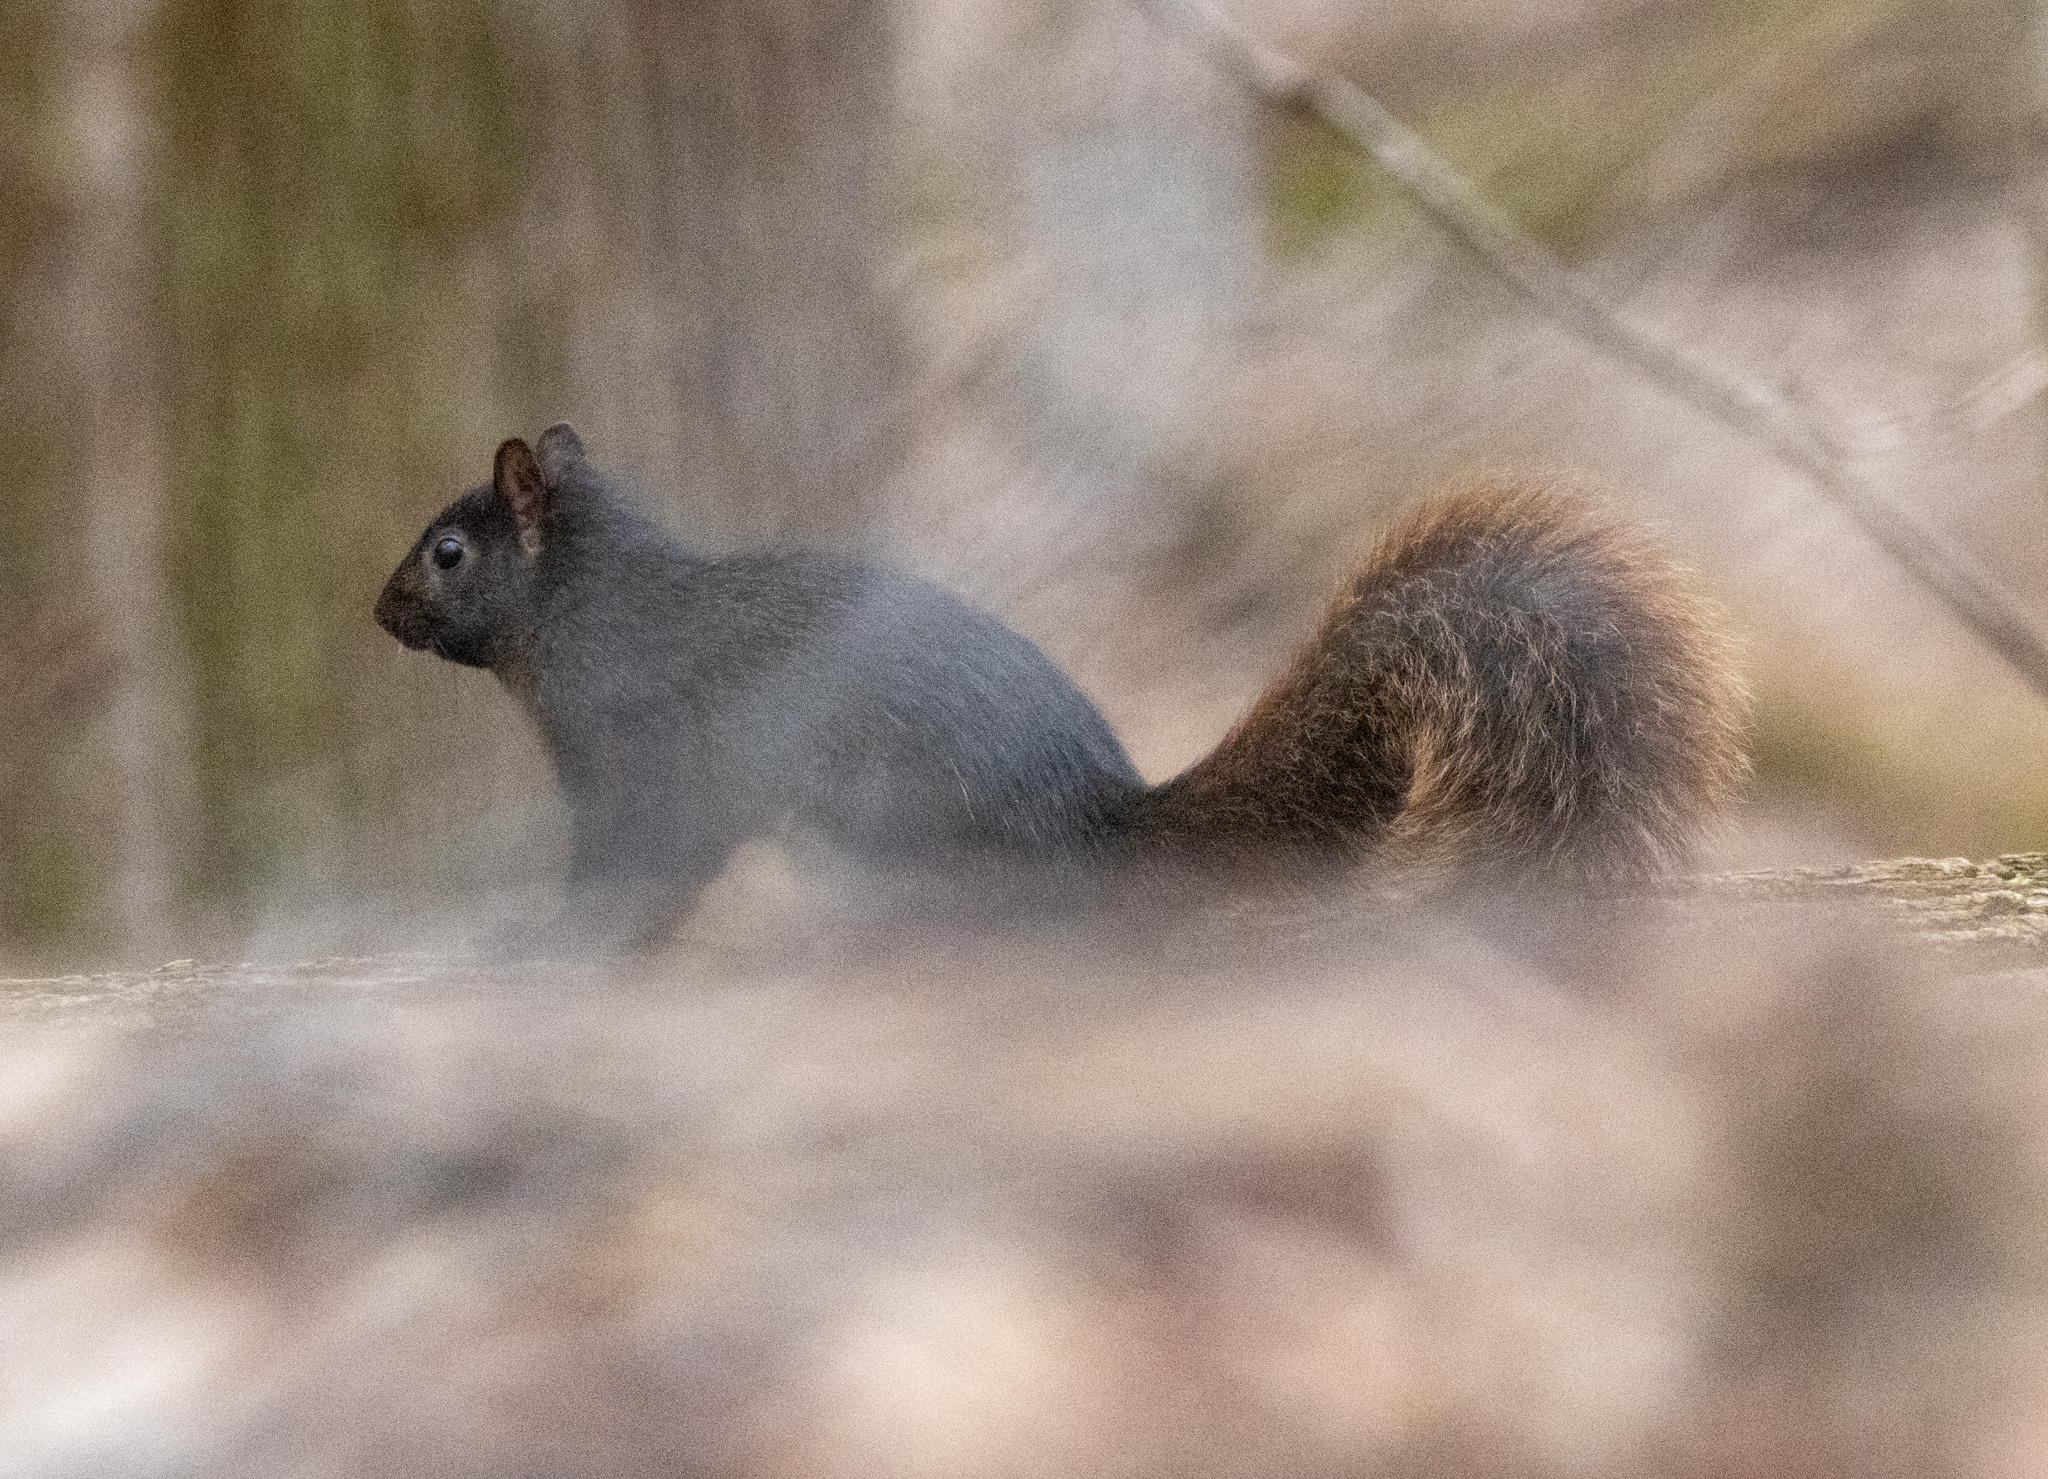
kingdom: Animalia
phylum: Chordata
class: Mammalia
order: Rodentia
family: Sciuridae
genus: Sciurus
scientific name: Sciurus carolinensis
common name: Eastern gray squirrel
